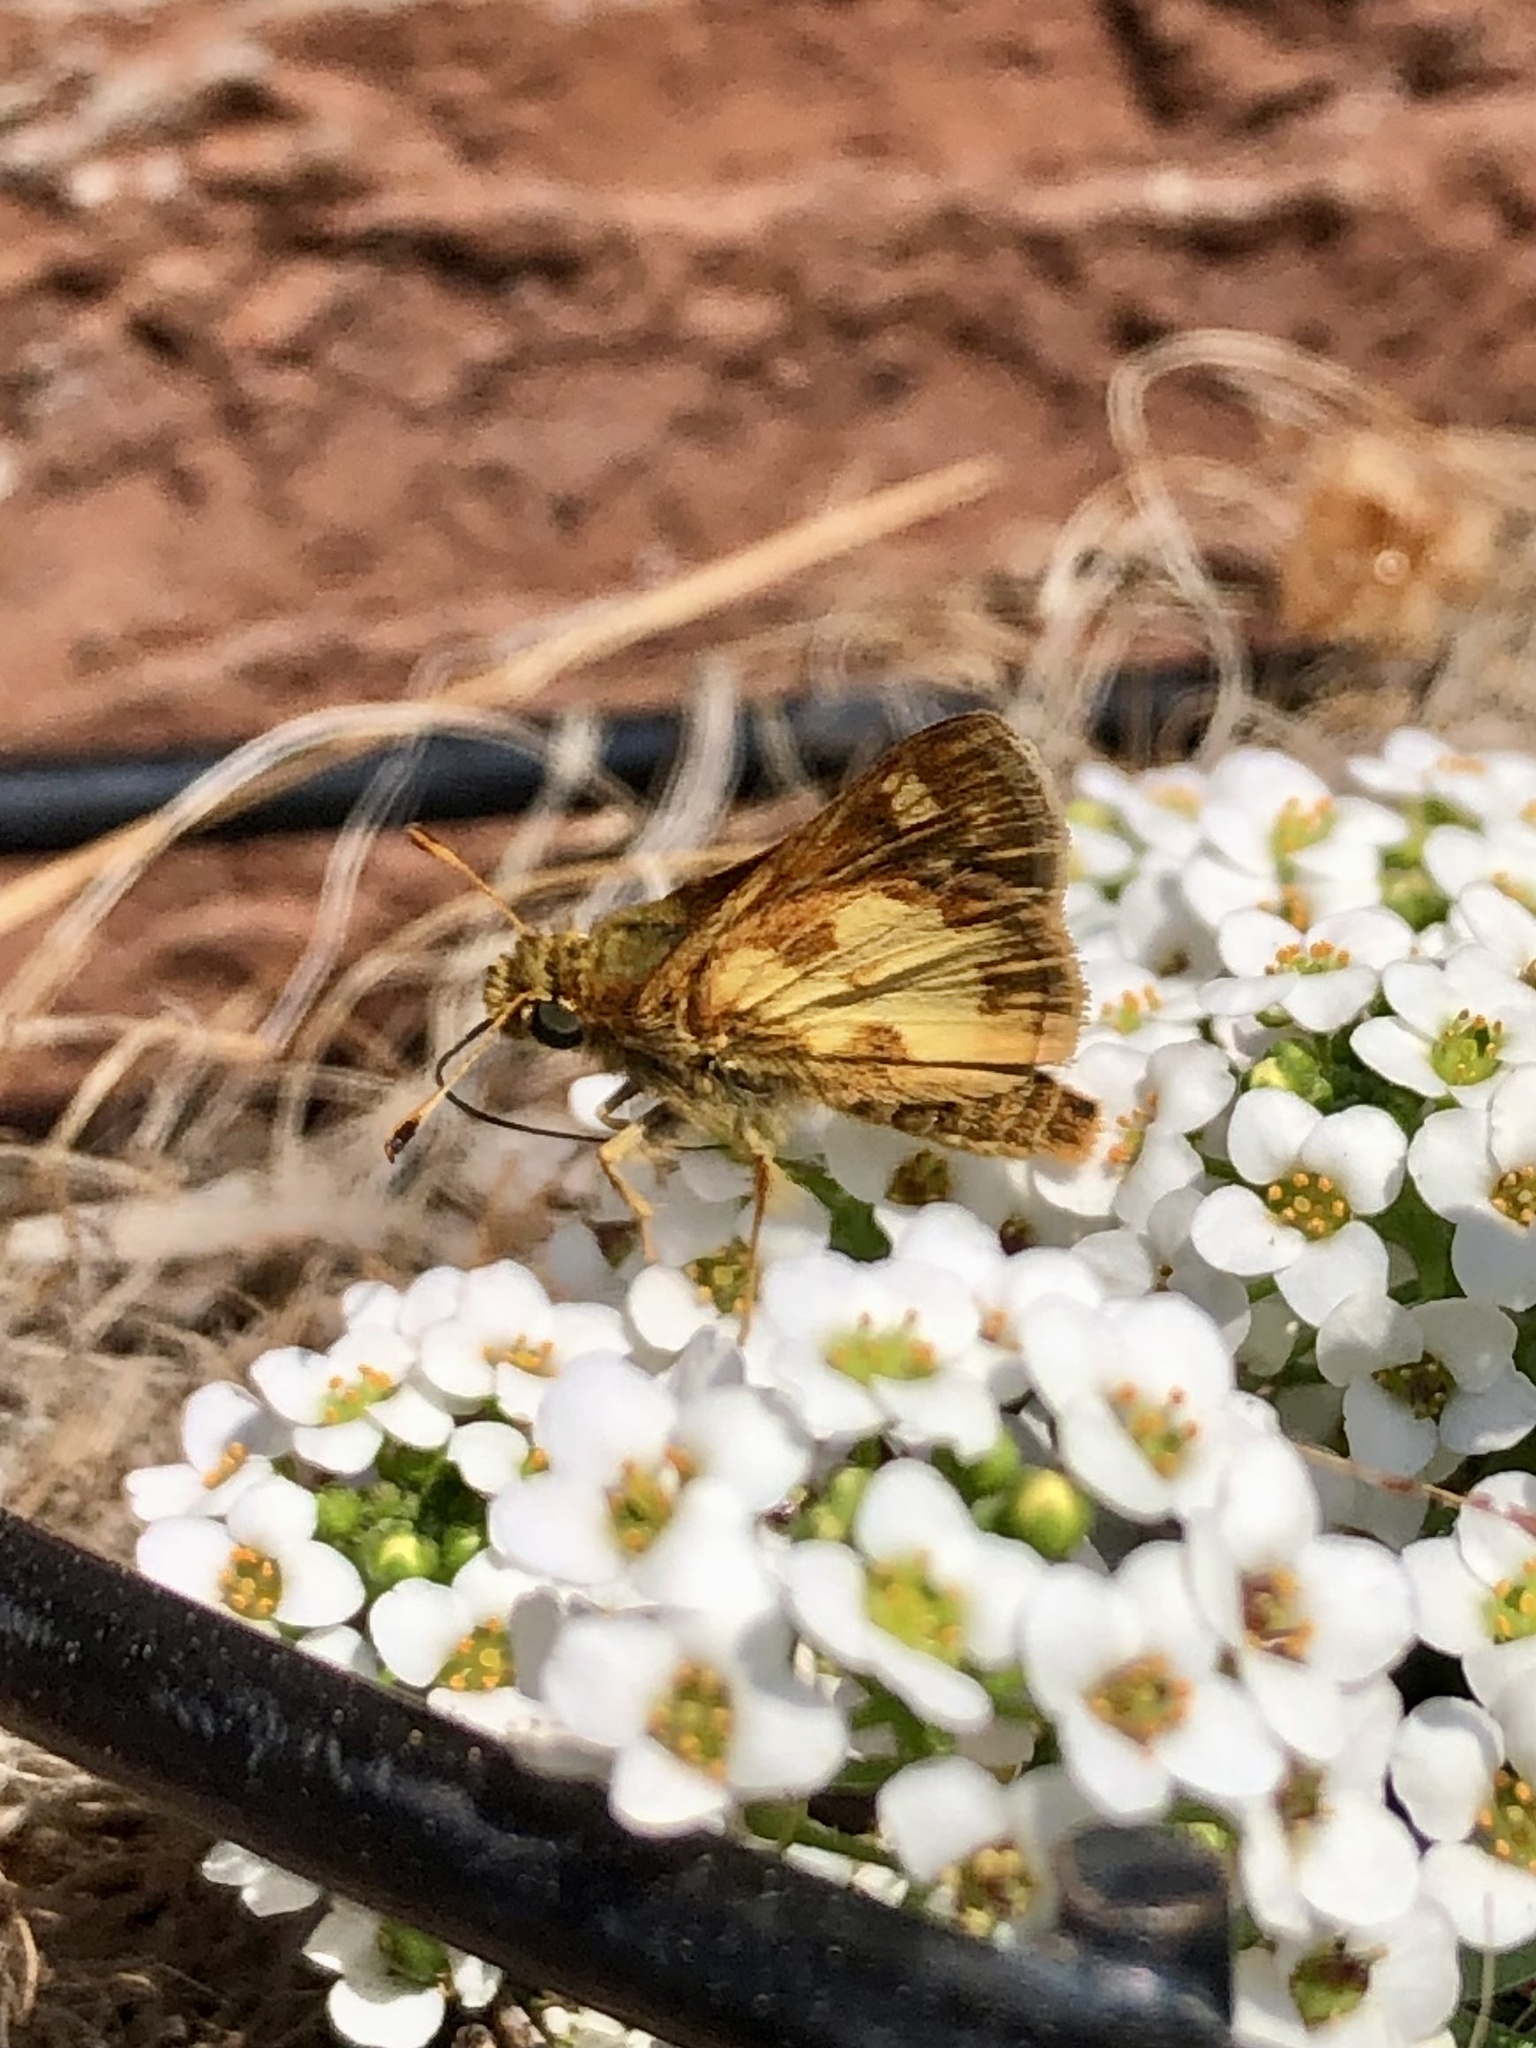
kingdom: Animalia
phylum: Arthropoda
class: Insecta
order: Lepidoptera
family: Hesperiidae
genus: Polites
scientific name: Polites coras
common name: Peck's skipper
